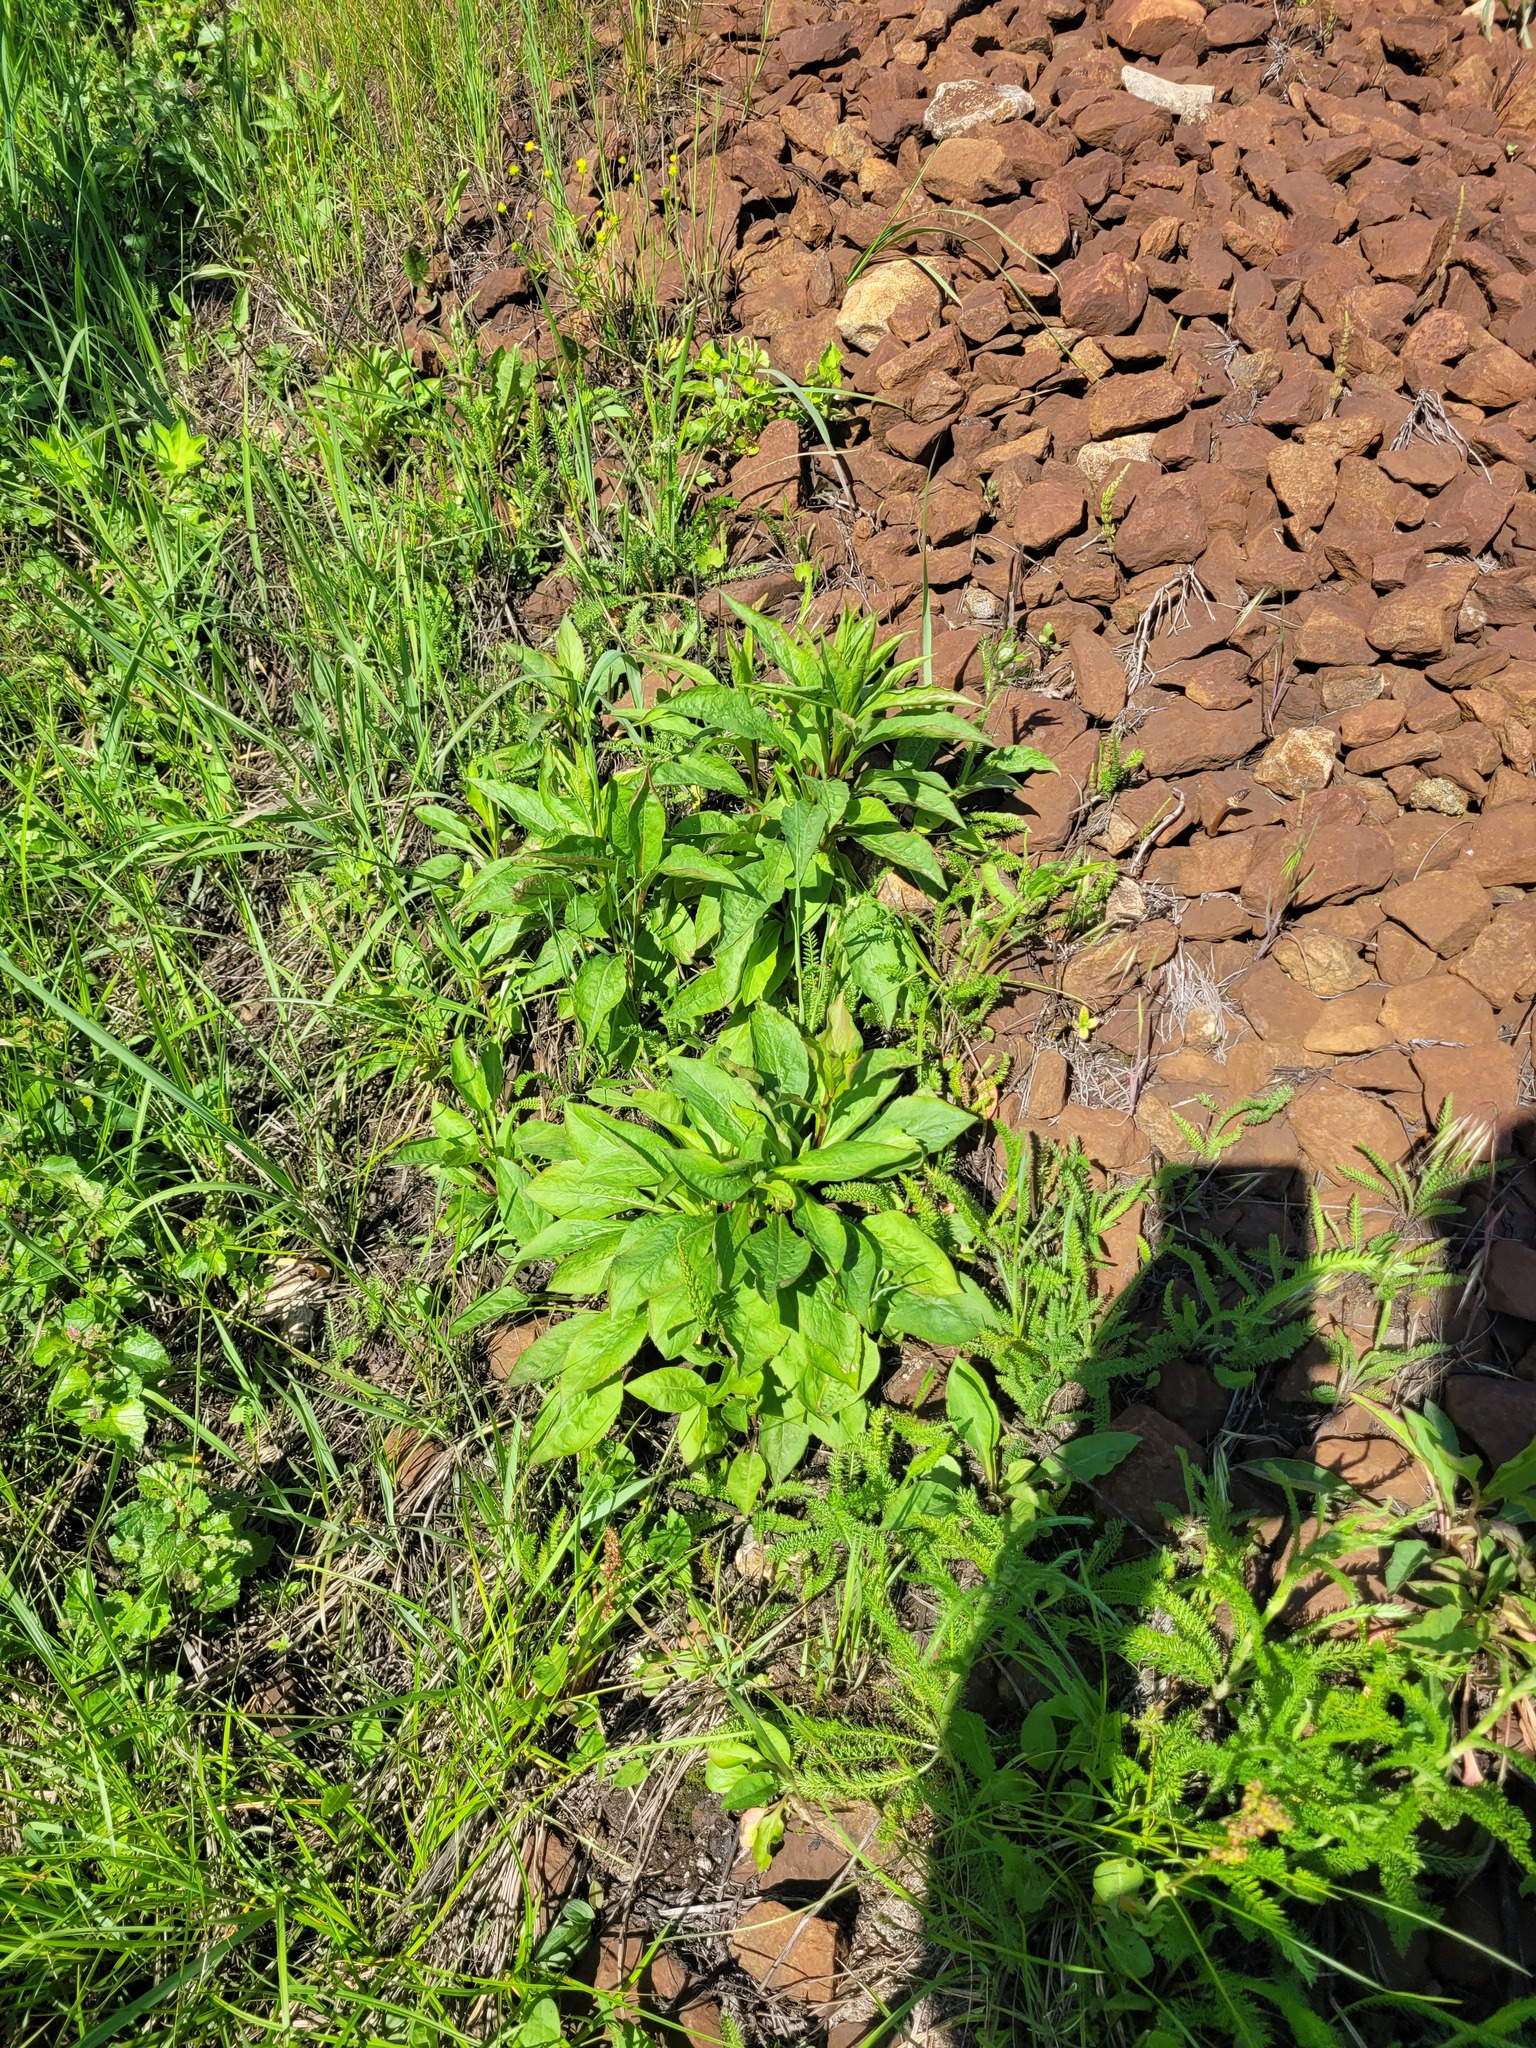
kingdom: Plantae
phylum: Tracheophyta
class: Magnoliopsida
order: Asterales
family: Asteraceae
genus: Solidago
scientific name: Solidago virgaurea
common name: Goldenrod
